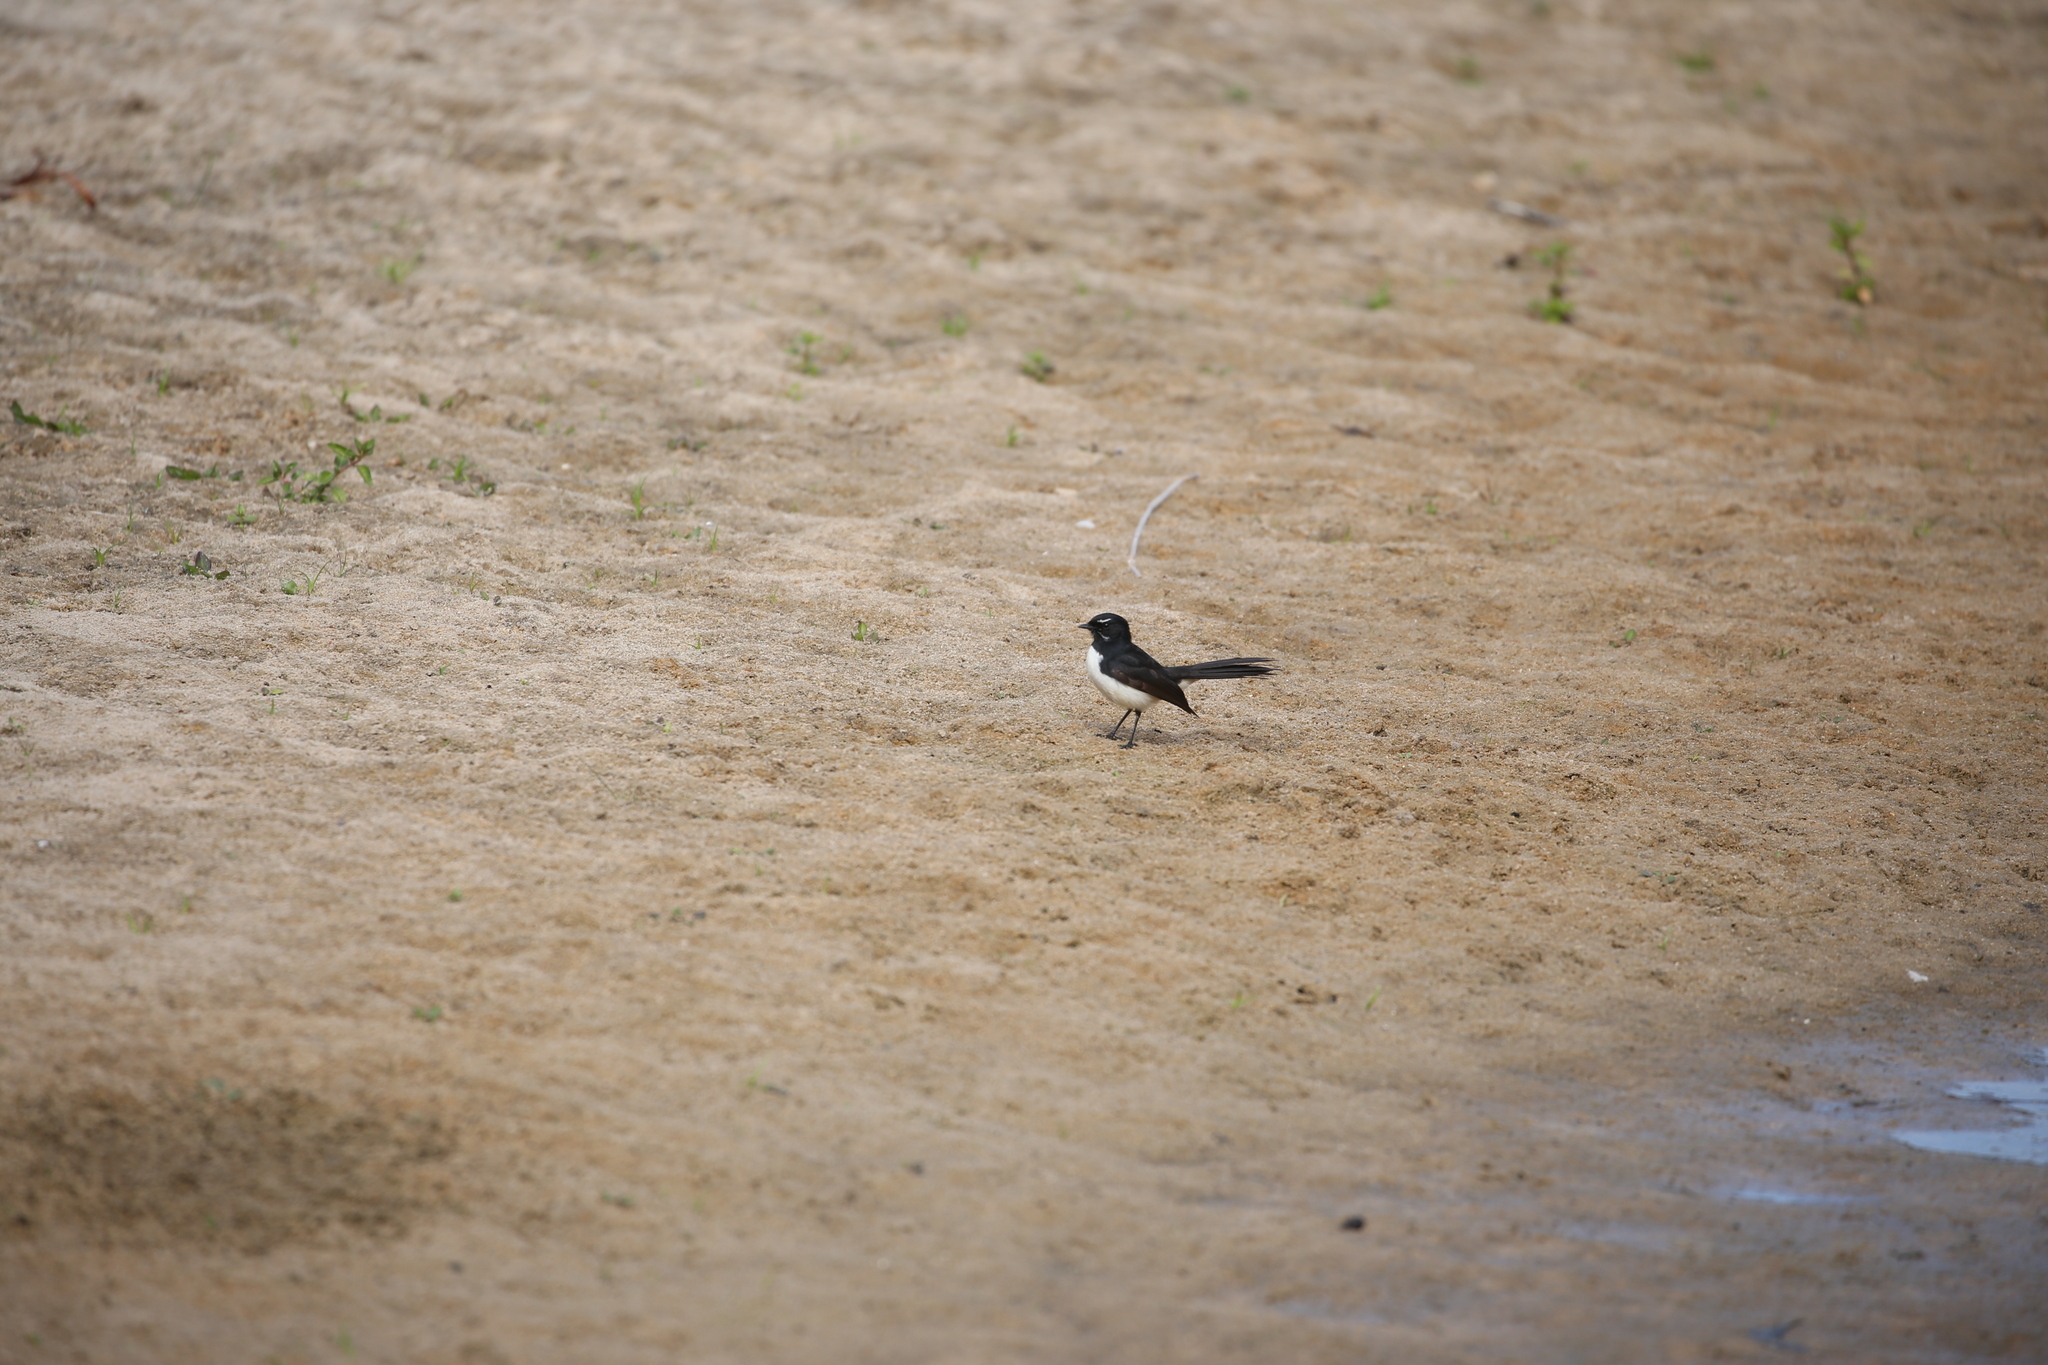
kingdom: Animalia
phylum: Chordata
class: Aves
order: Passeriformes
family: Rhipiduridae
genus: Rhipidura
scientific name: Rhipidura leucophrys
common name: Willie wagtail
